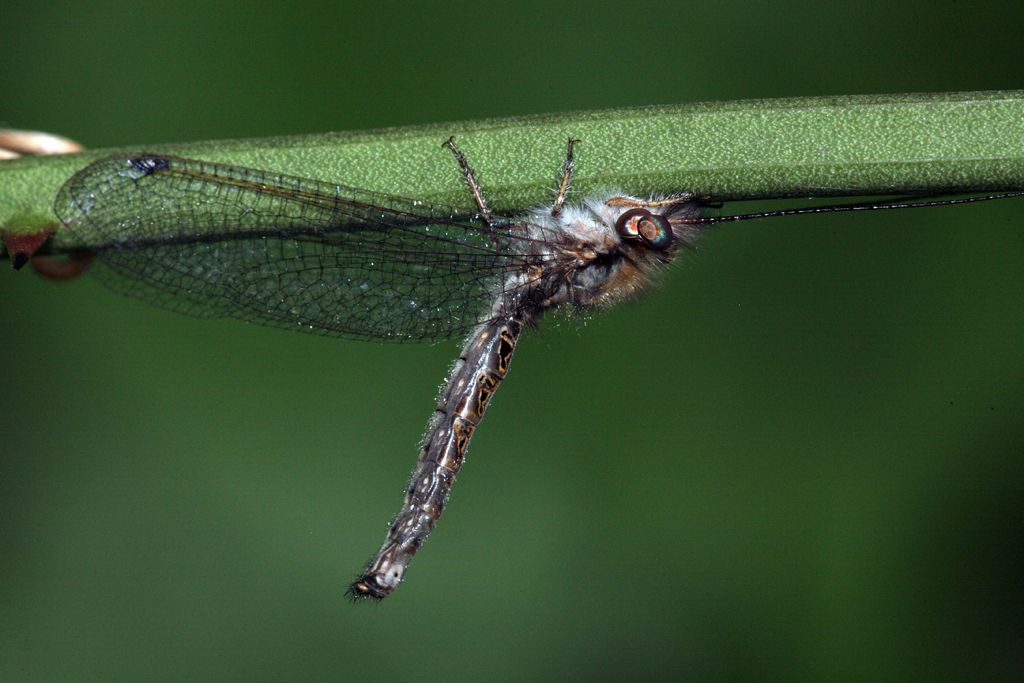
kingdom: Animalia
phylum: Arthropoda
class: Insecta
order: Neuroptera
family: Ascalaphidae
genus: Ululodes
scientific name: Ululodes macleayanus
